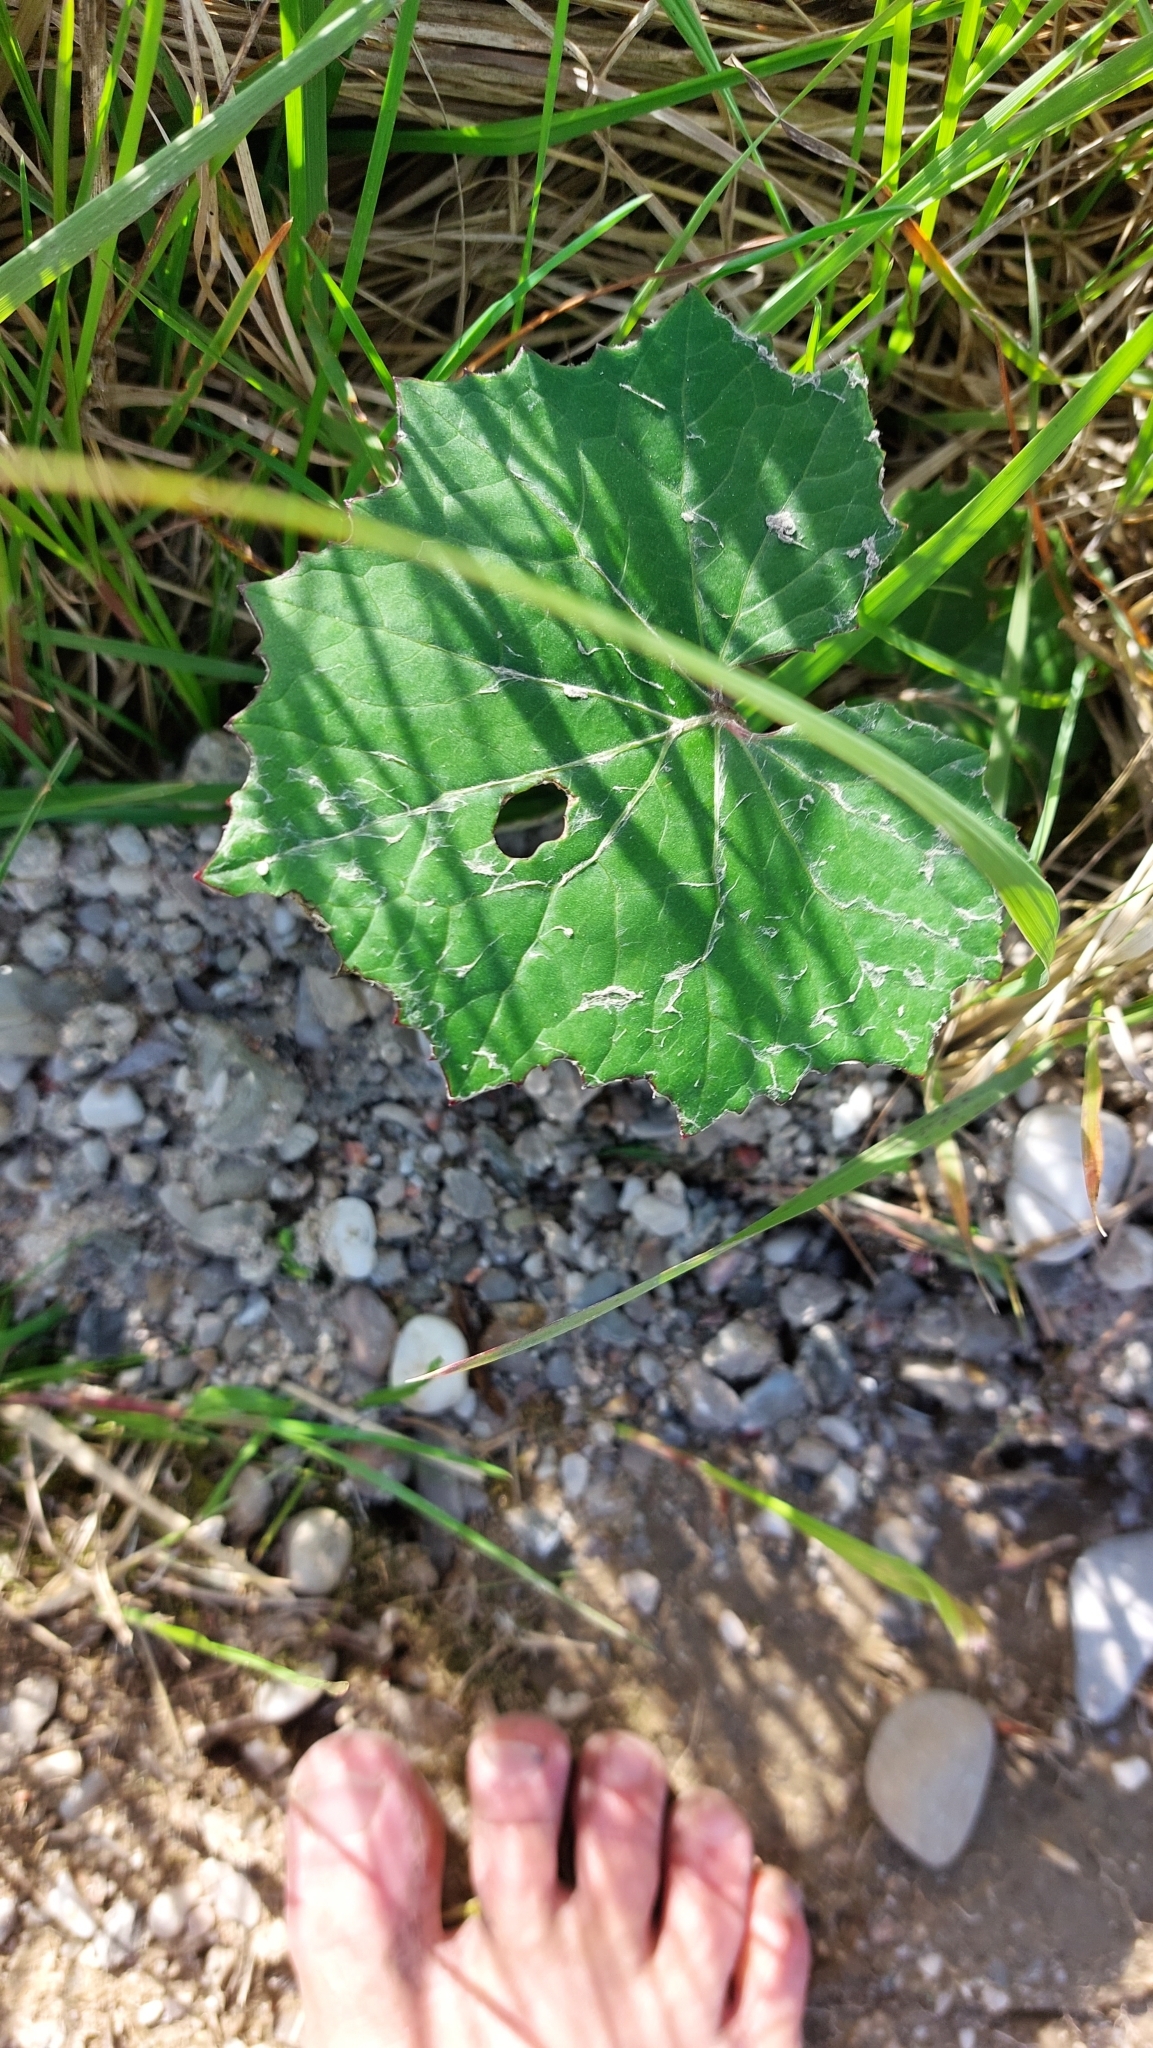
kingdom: Plantae
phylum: Tracheophyta
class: Magnoliopsida
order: Asterales
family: Asteraceae
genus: Tussilago
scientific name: Tussilago farfara
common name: Coltsfoot
